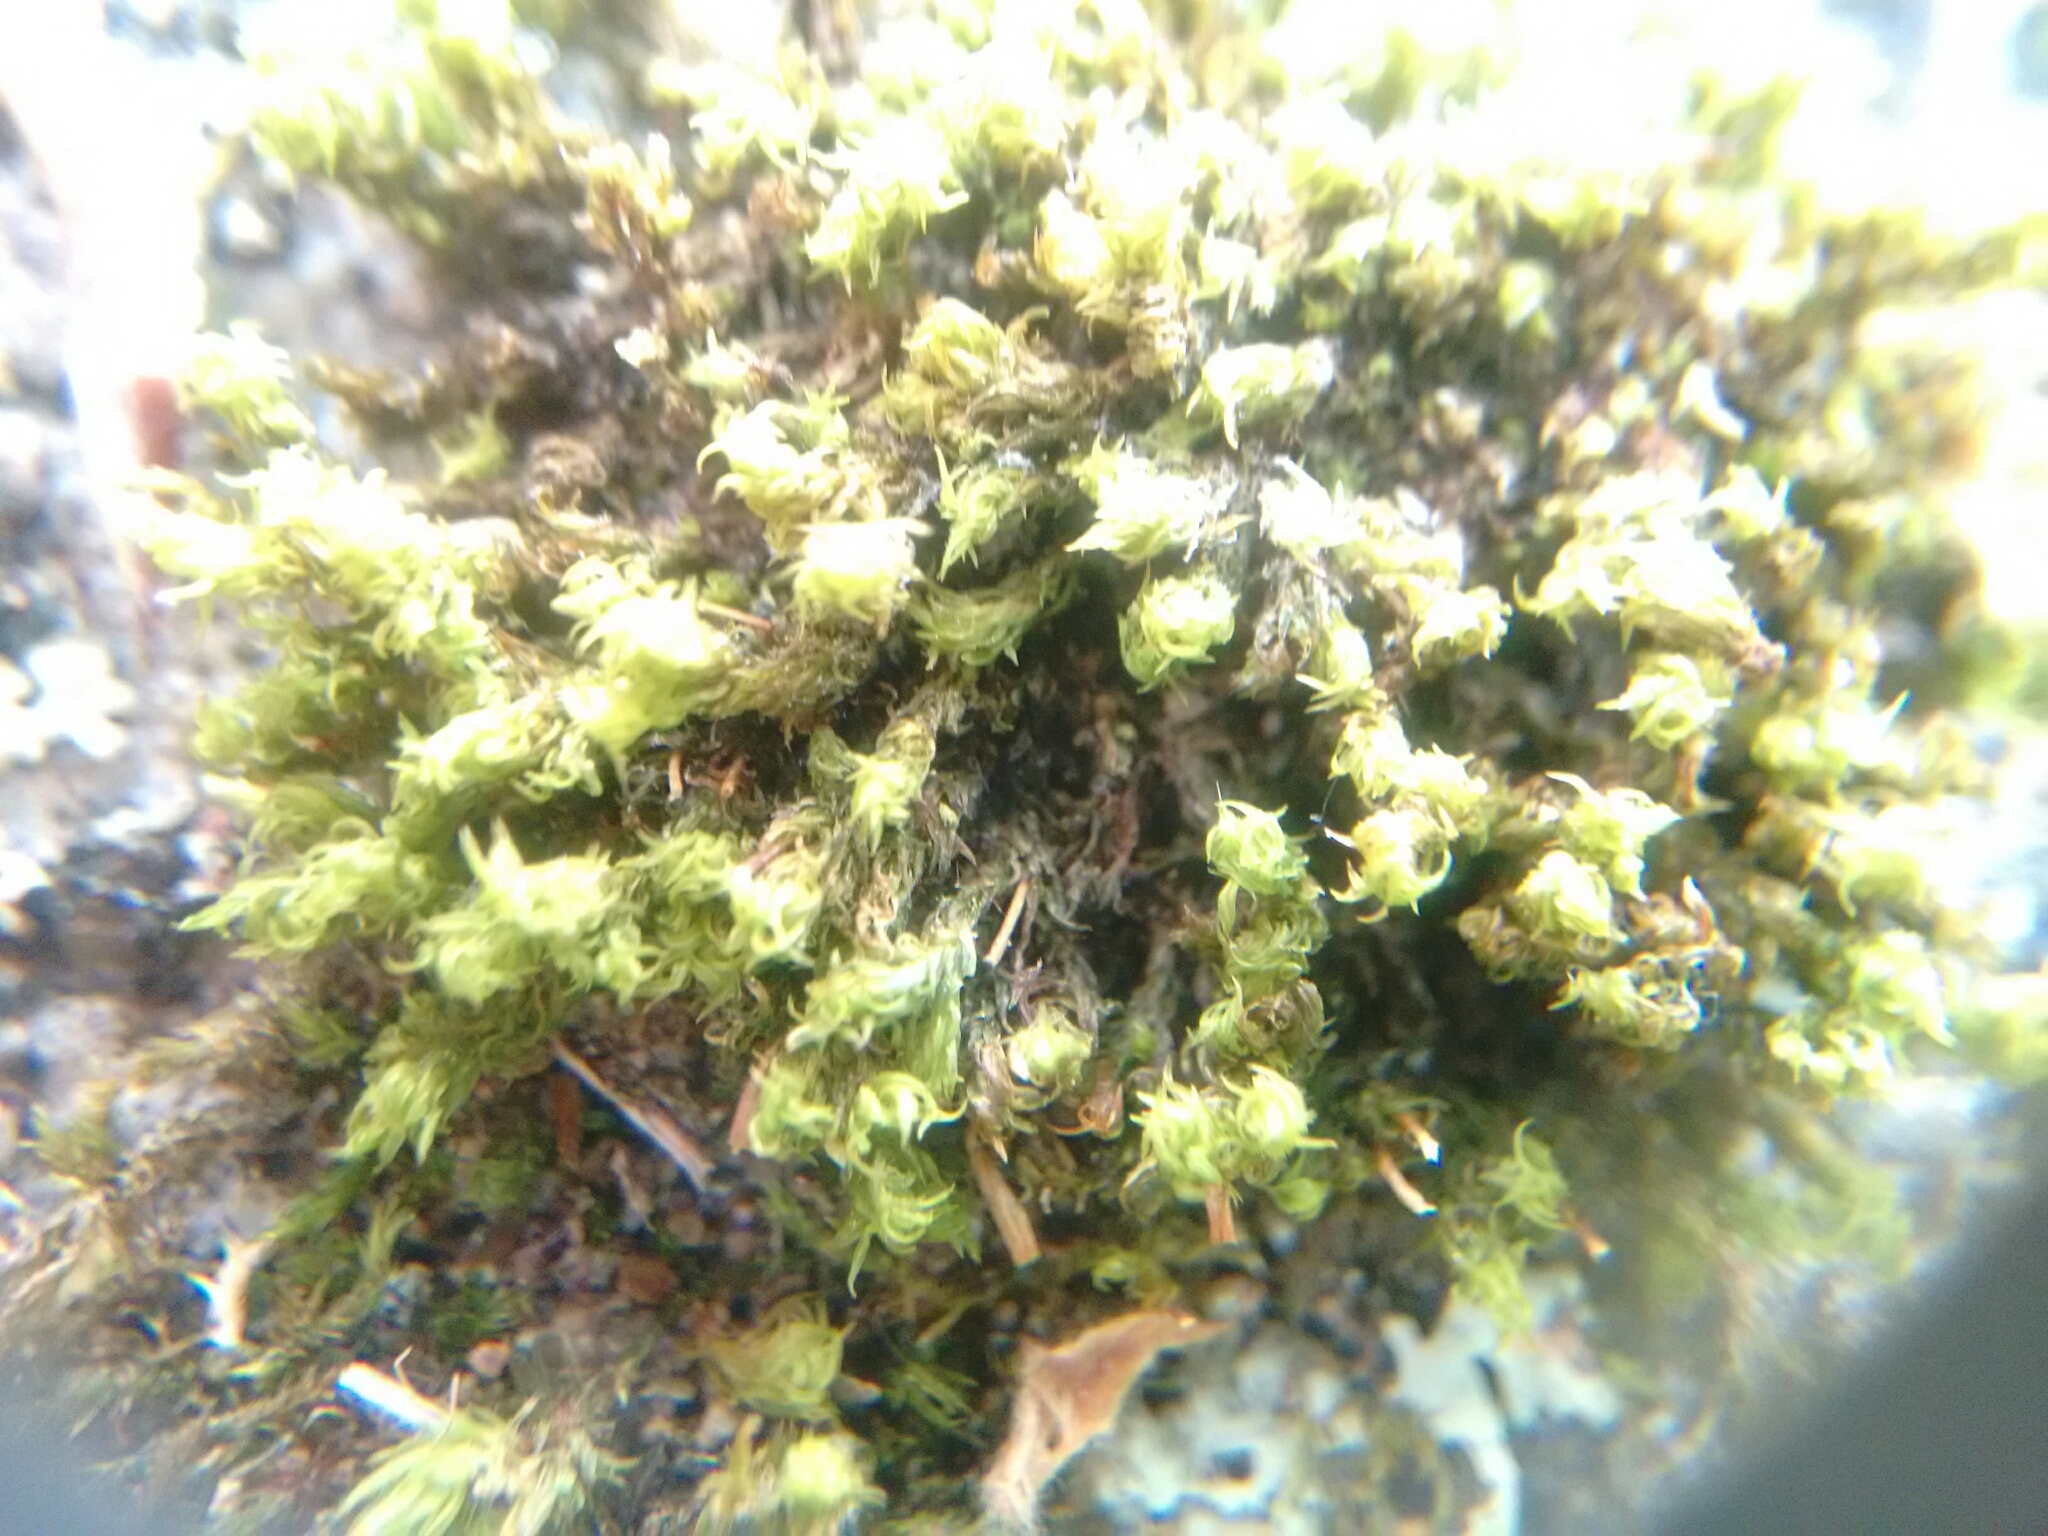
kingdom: Plantae
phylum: Bryophyta
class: Bryopsida
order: Orthotrichales
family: Orthotrichaceae
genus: Ulota
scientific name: Ulota hutchinsiae
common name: Hutchins' pincushion
